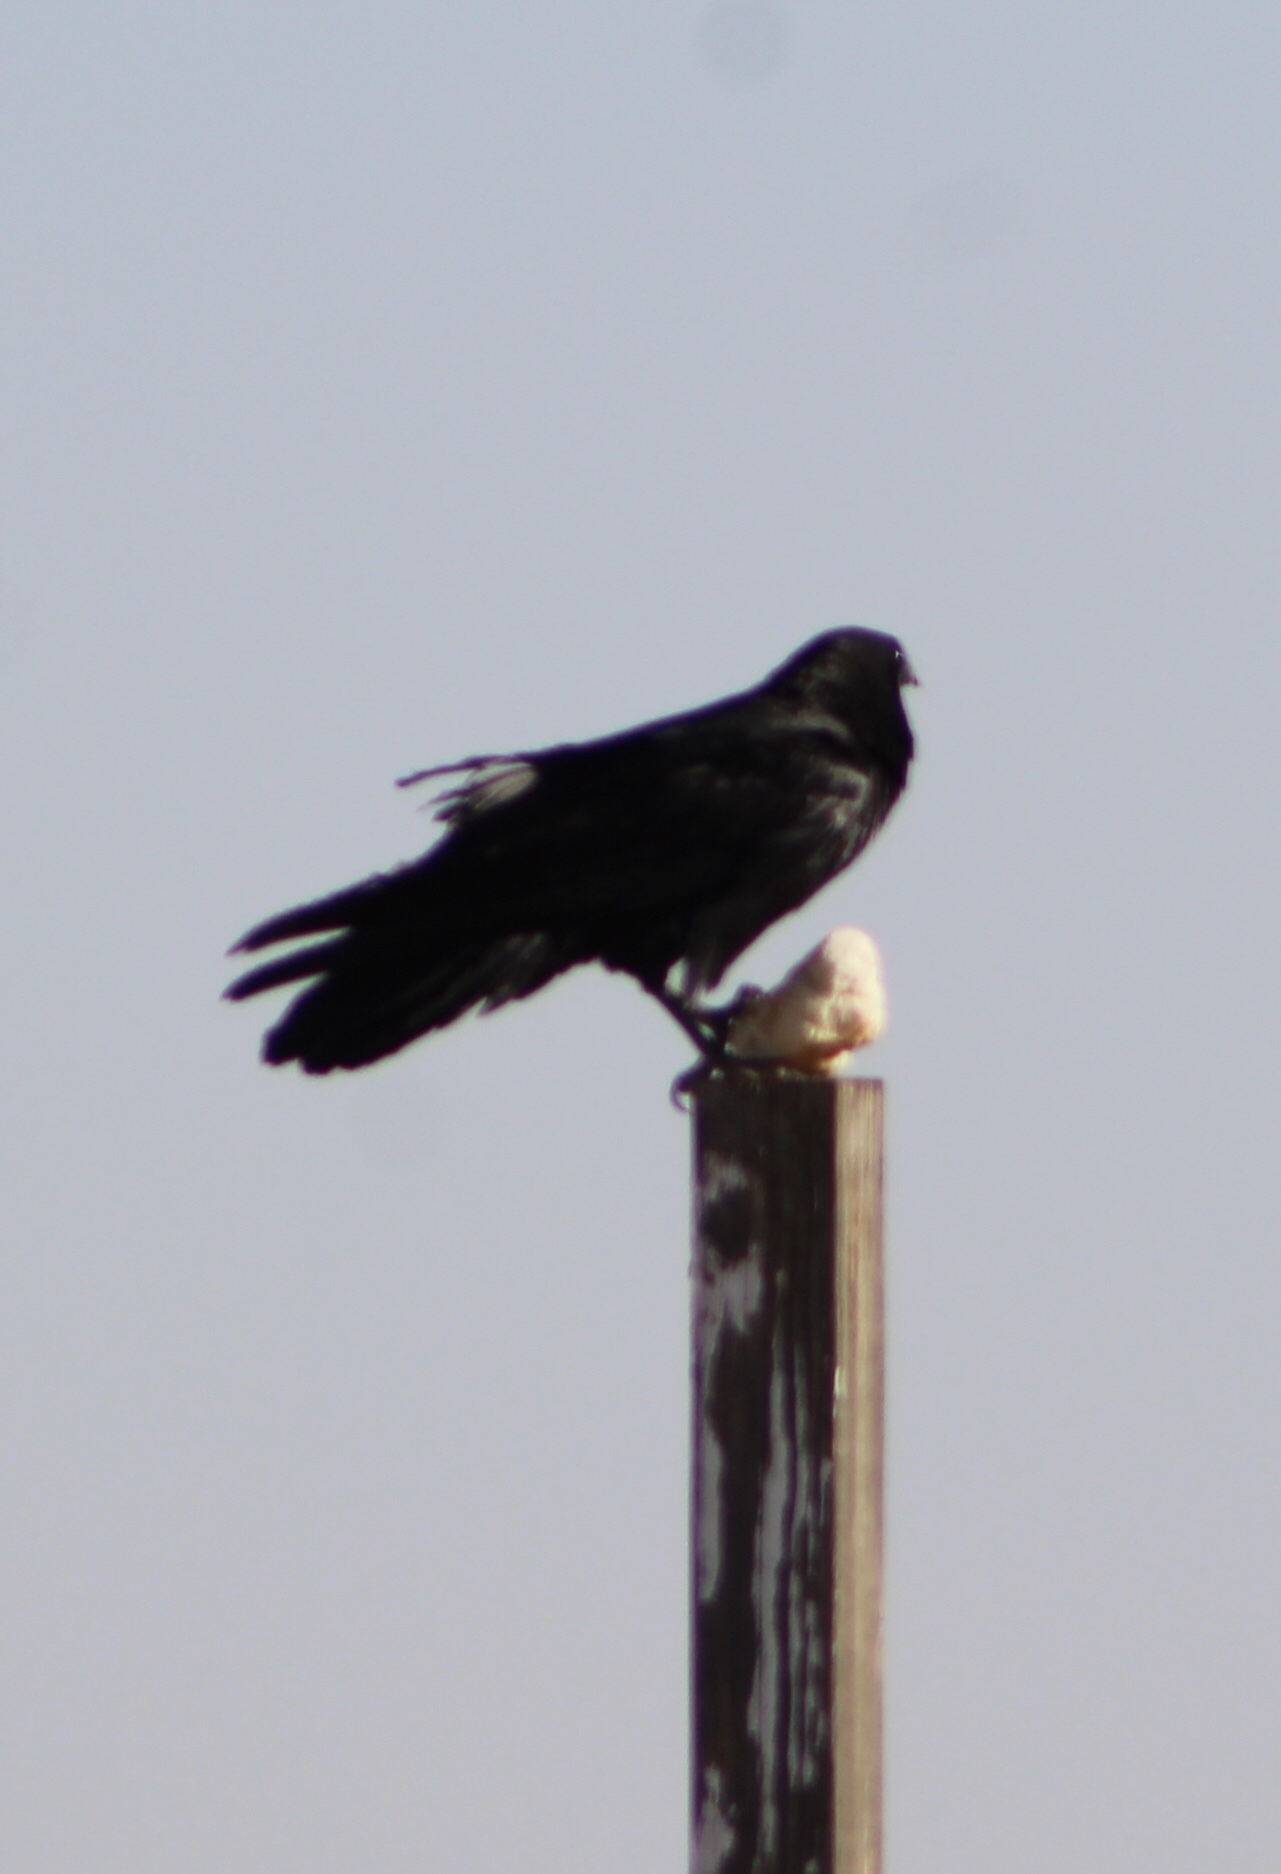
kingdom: Animalia
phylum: Chordata
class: Aves
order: Passeriformes
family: Corvidae
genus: Corvus
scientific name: Corvus
